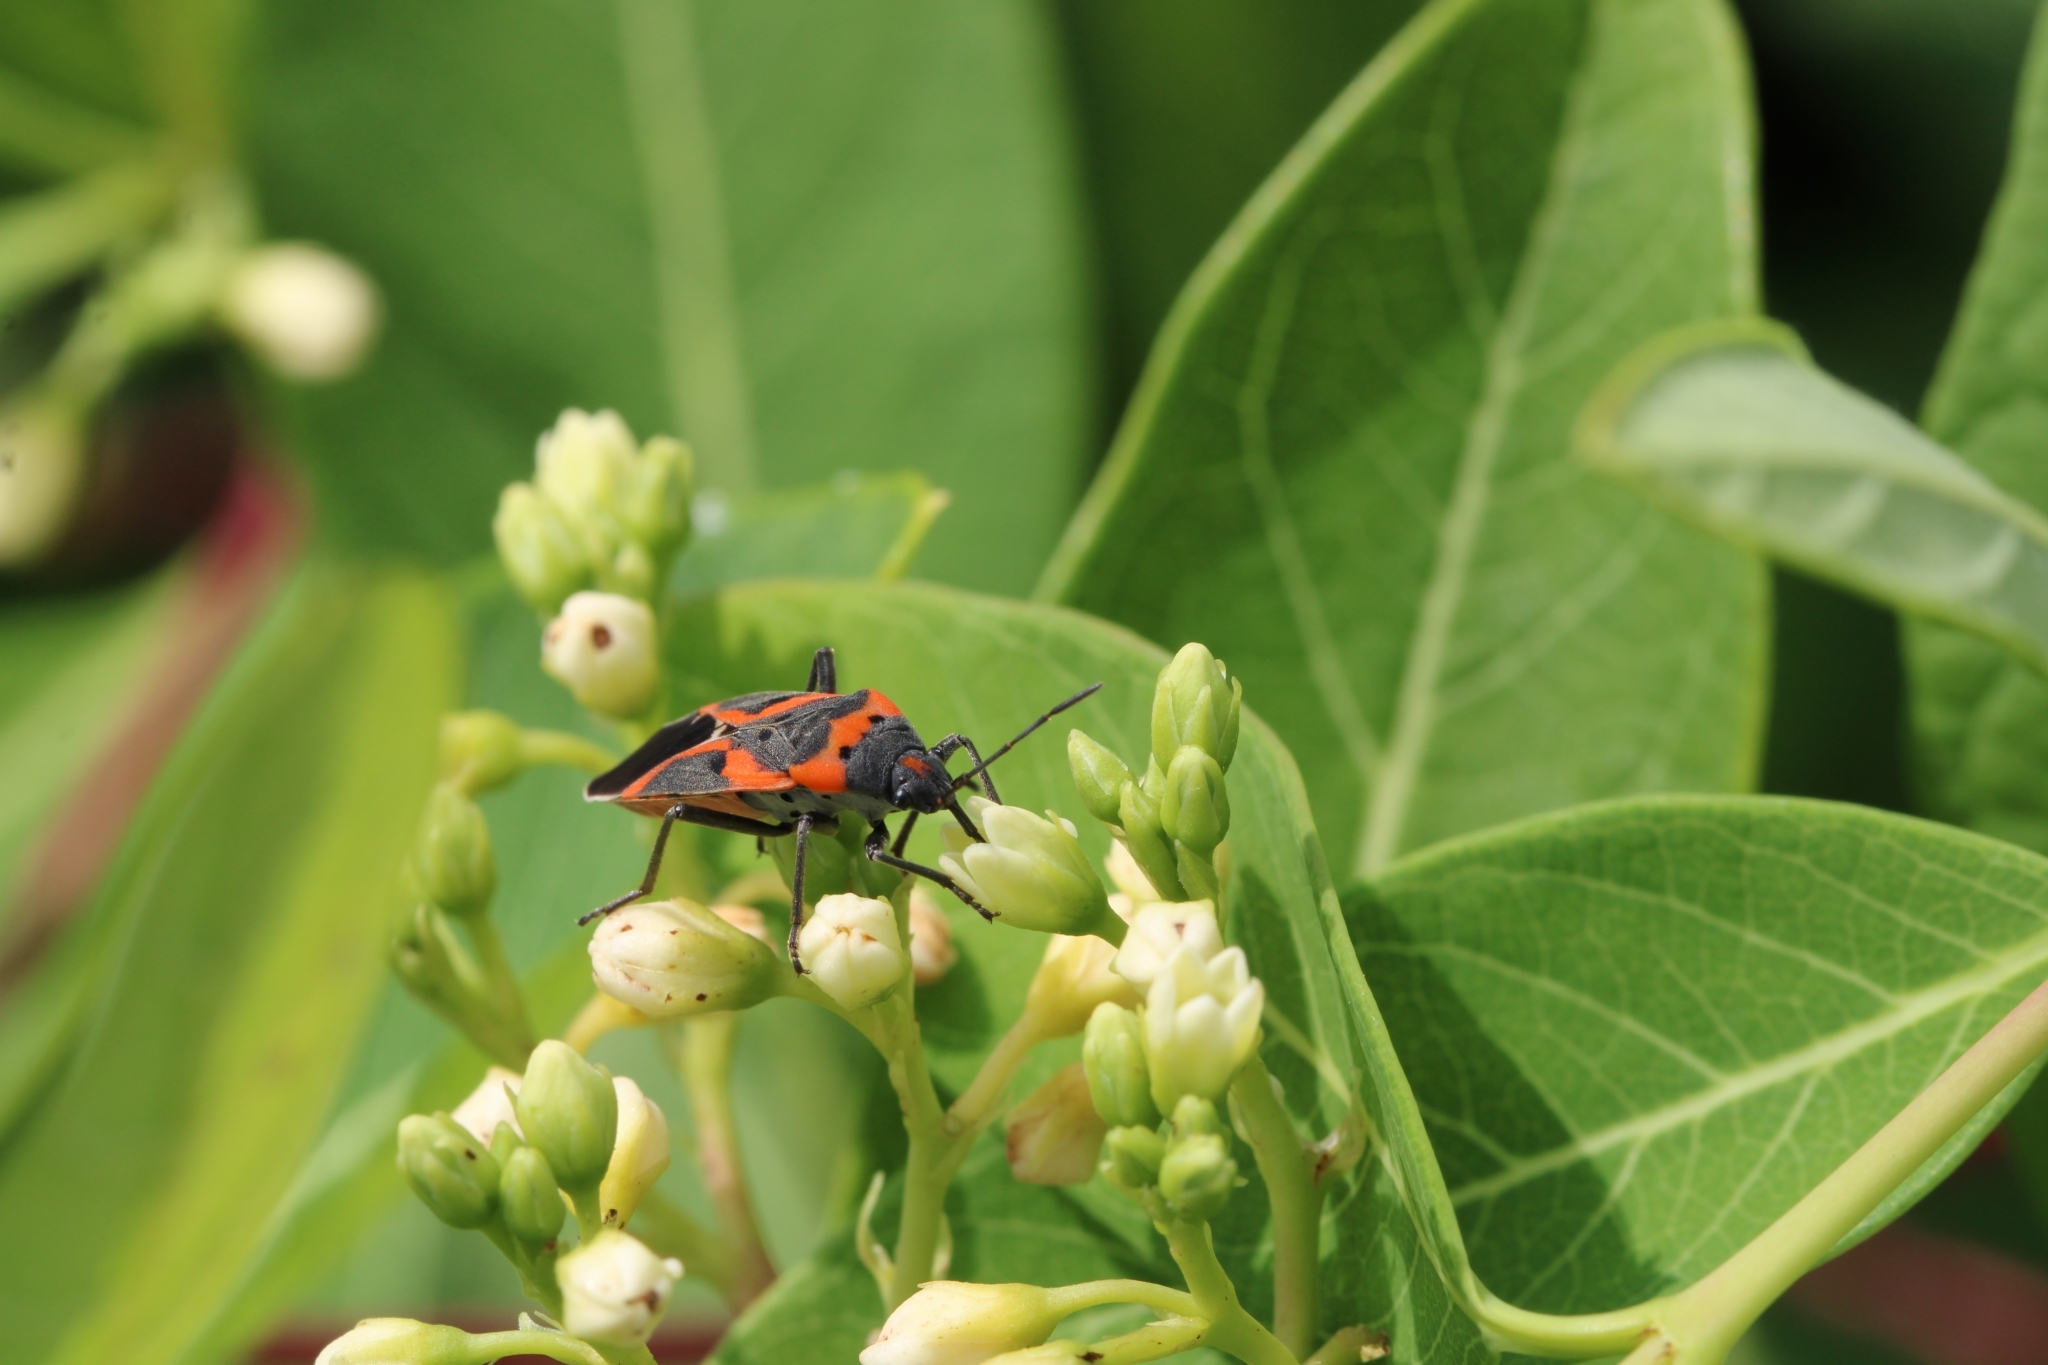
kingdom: Animalia
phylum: Arthropoda
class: Insecta
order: Hemiptera
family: Lygaeidae
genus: Lygaeus
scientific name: Lygaeus kalmii
